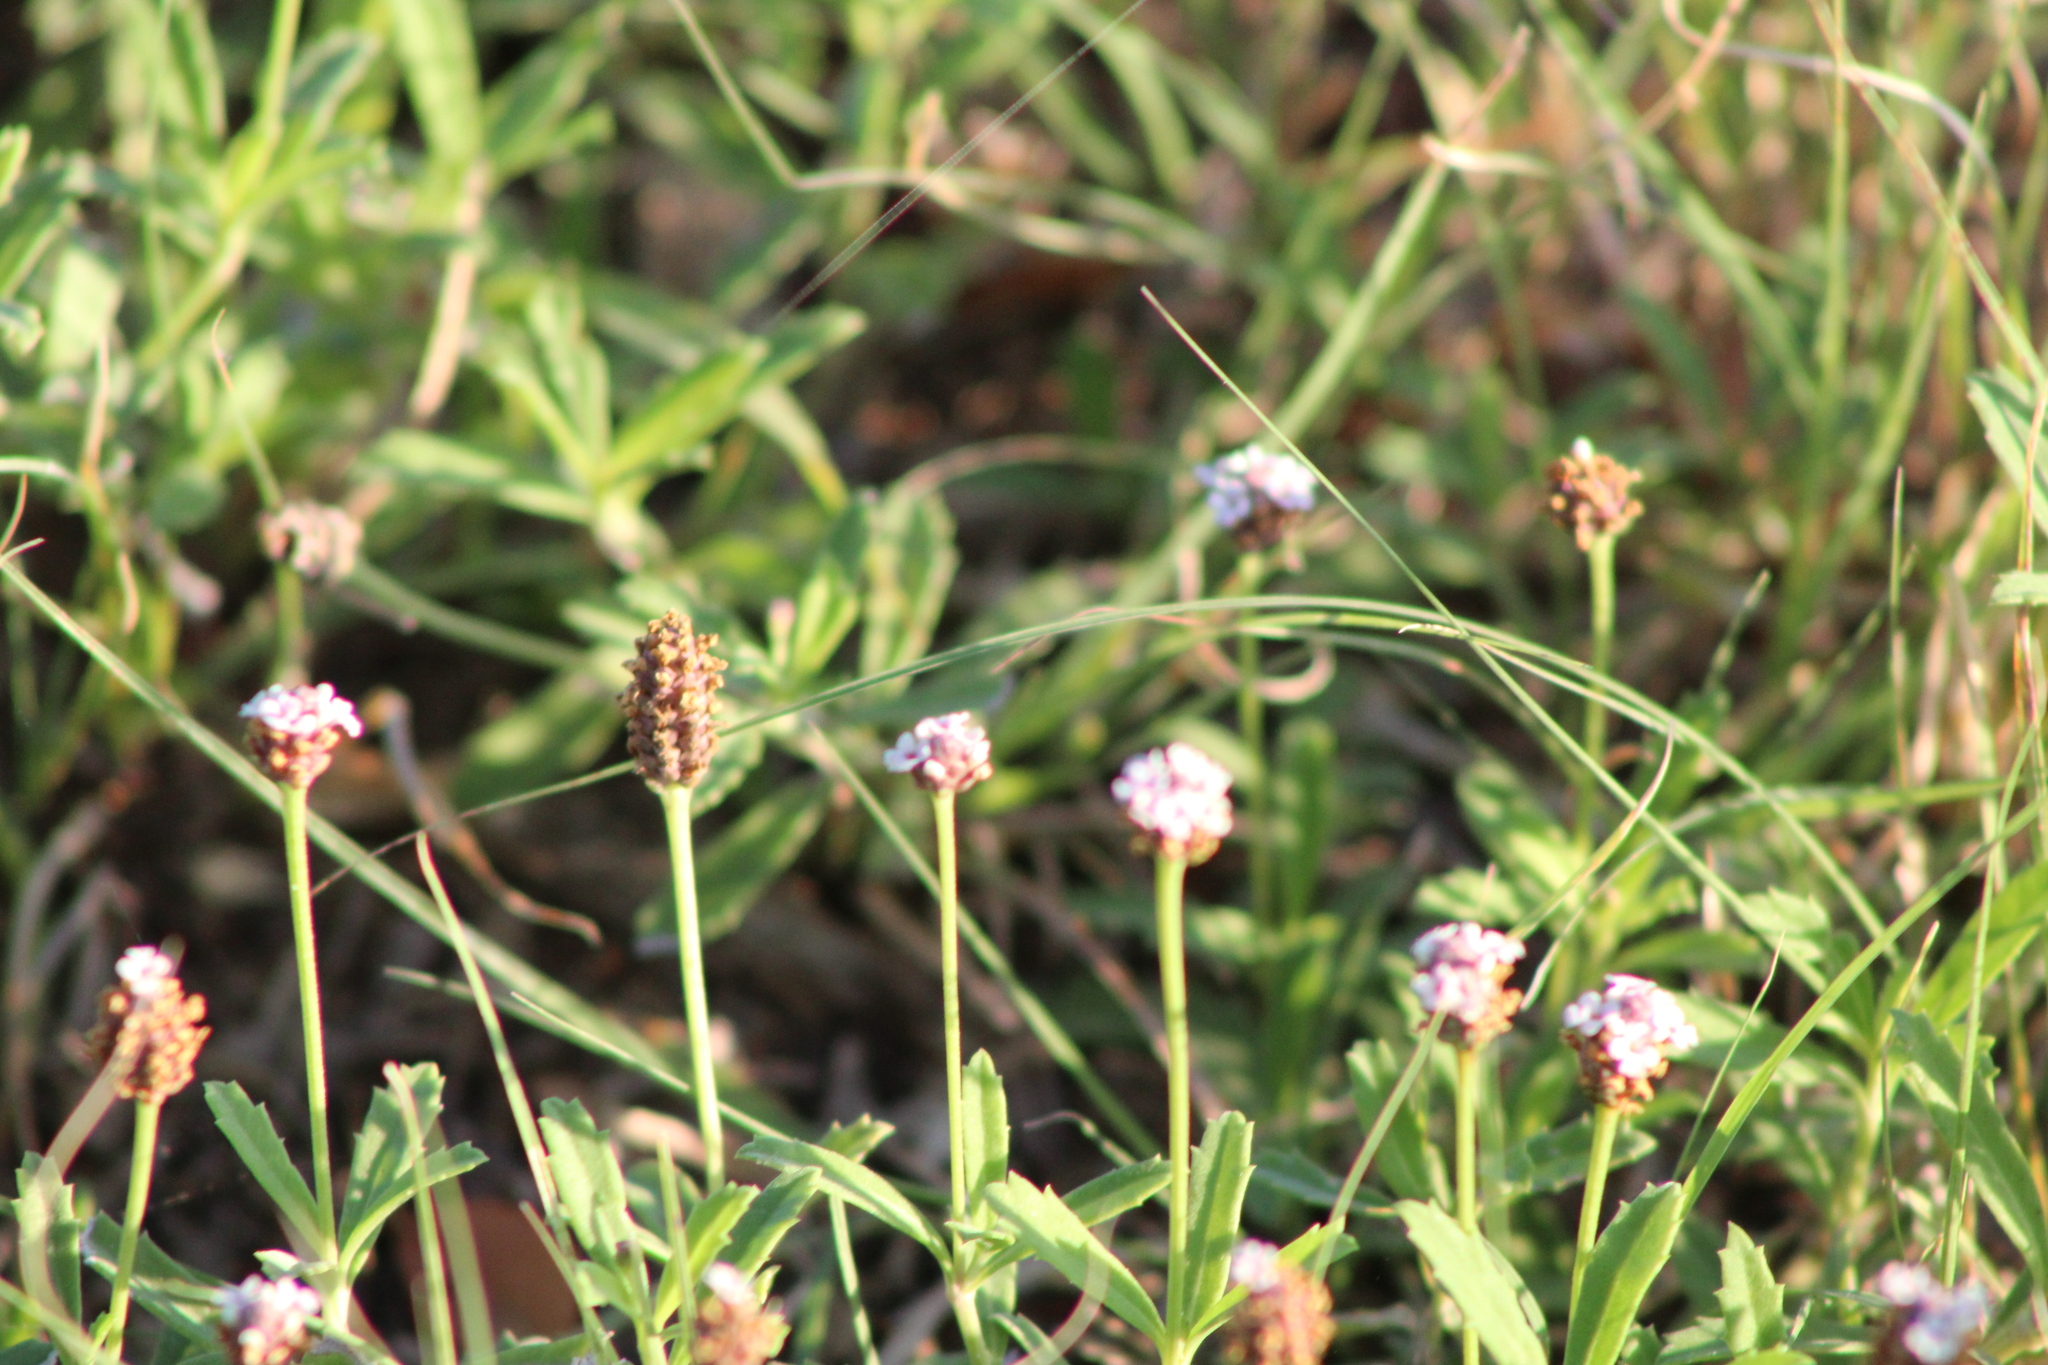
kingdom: Plantae
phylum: Tracheophyta
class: Magnoliopsida
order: Lamiales
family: Verbenaceae
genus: Phyla
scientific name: Phyla nodiflora
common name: Frogfruit
